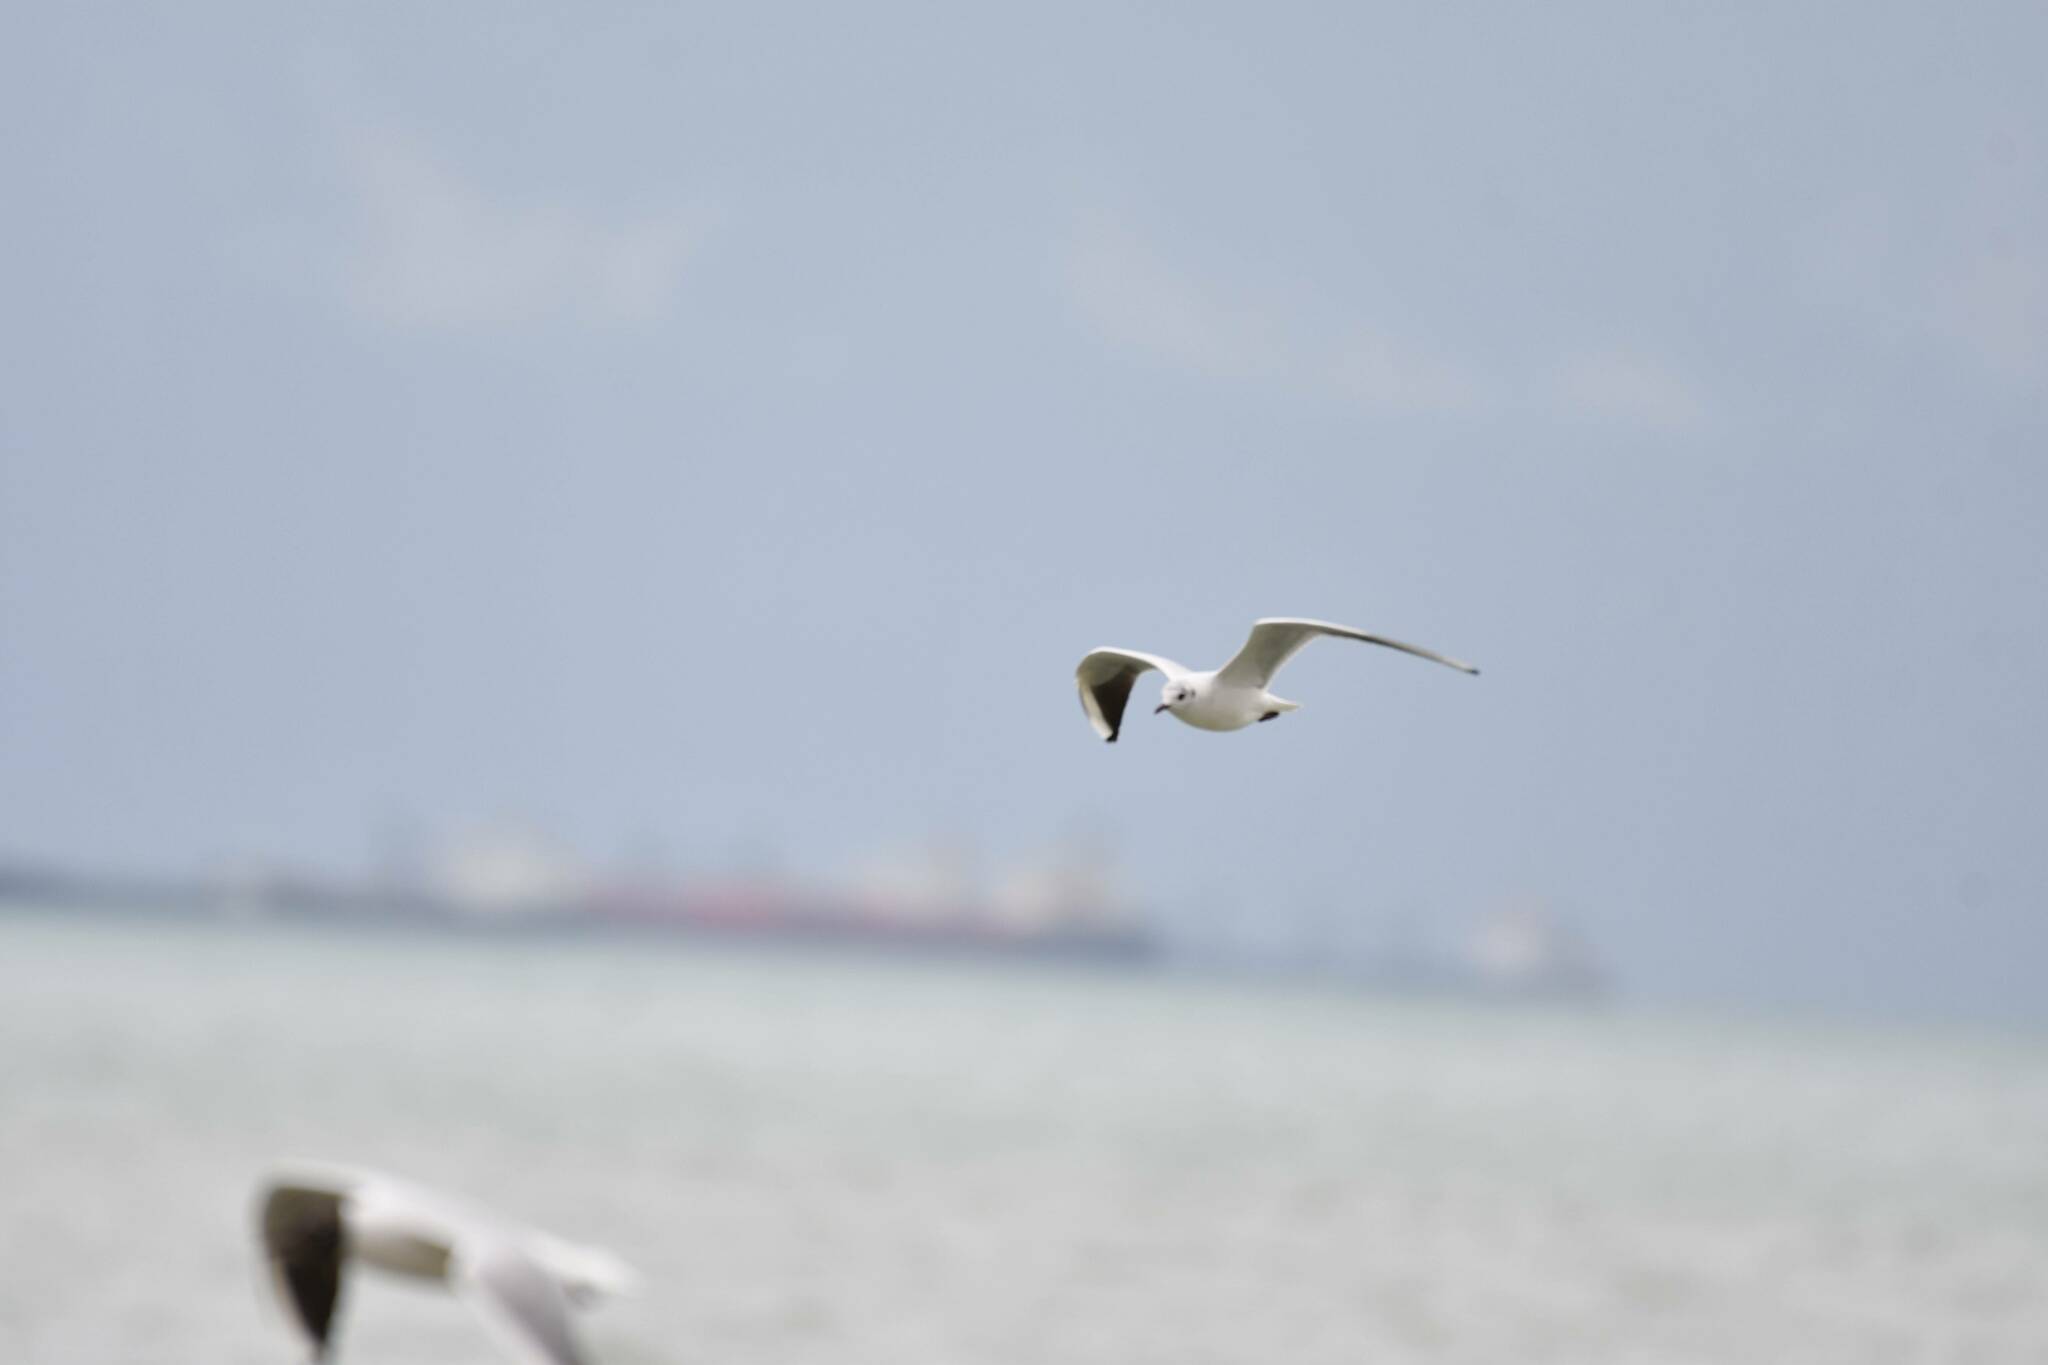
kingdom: Animalia
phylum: Chordata
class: Aves
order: Charadriiformes
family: Laridae
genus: Chroicocephalus
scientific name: Chroicocephalus ridibundus
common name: Black-headed gull
